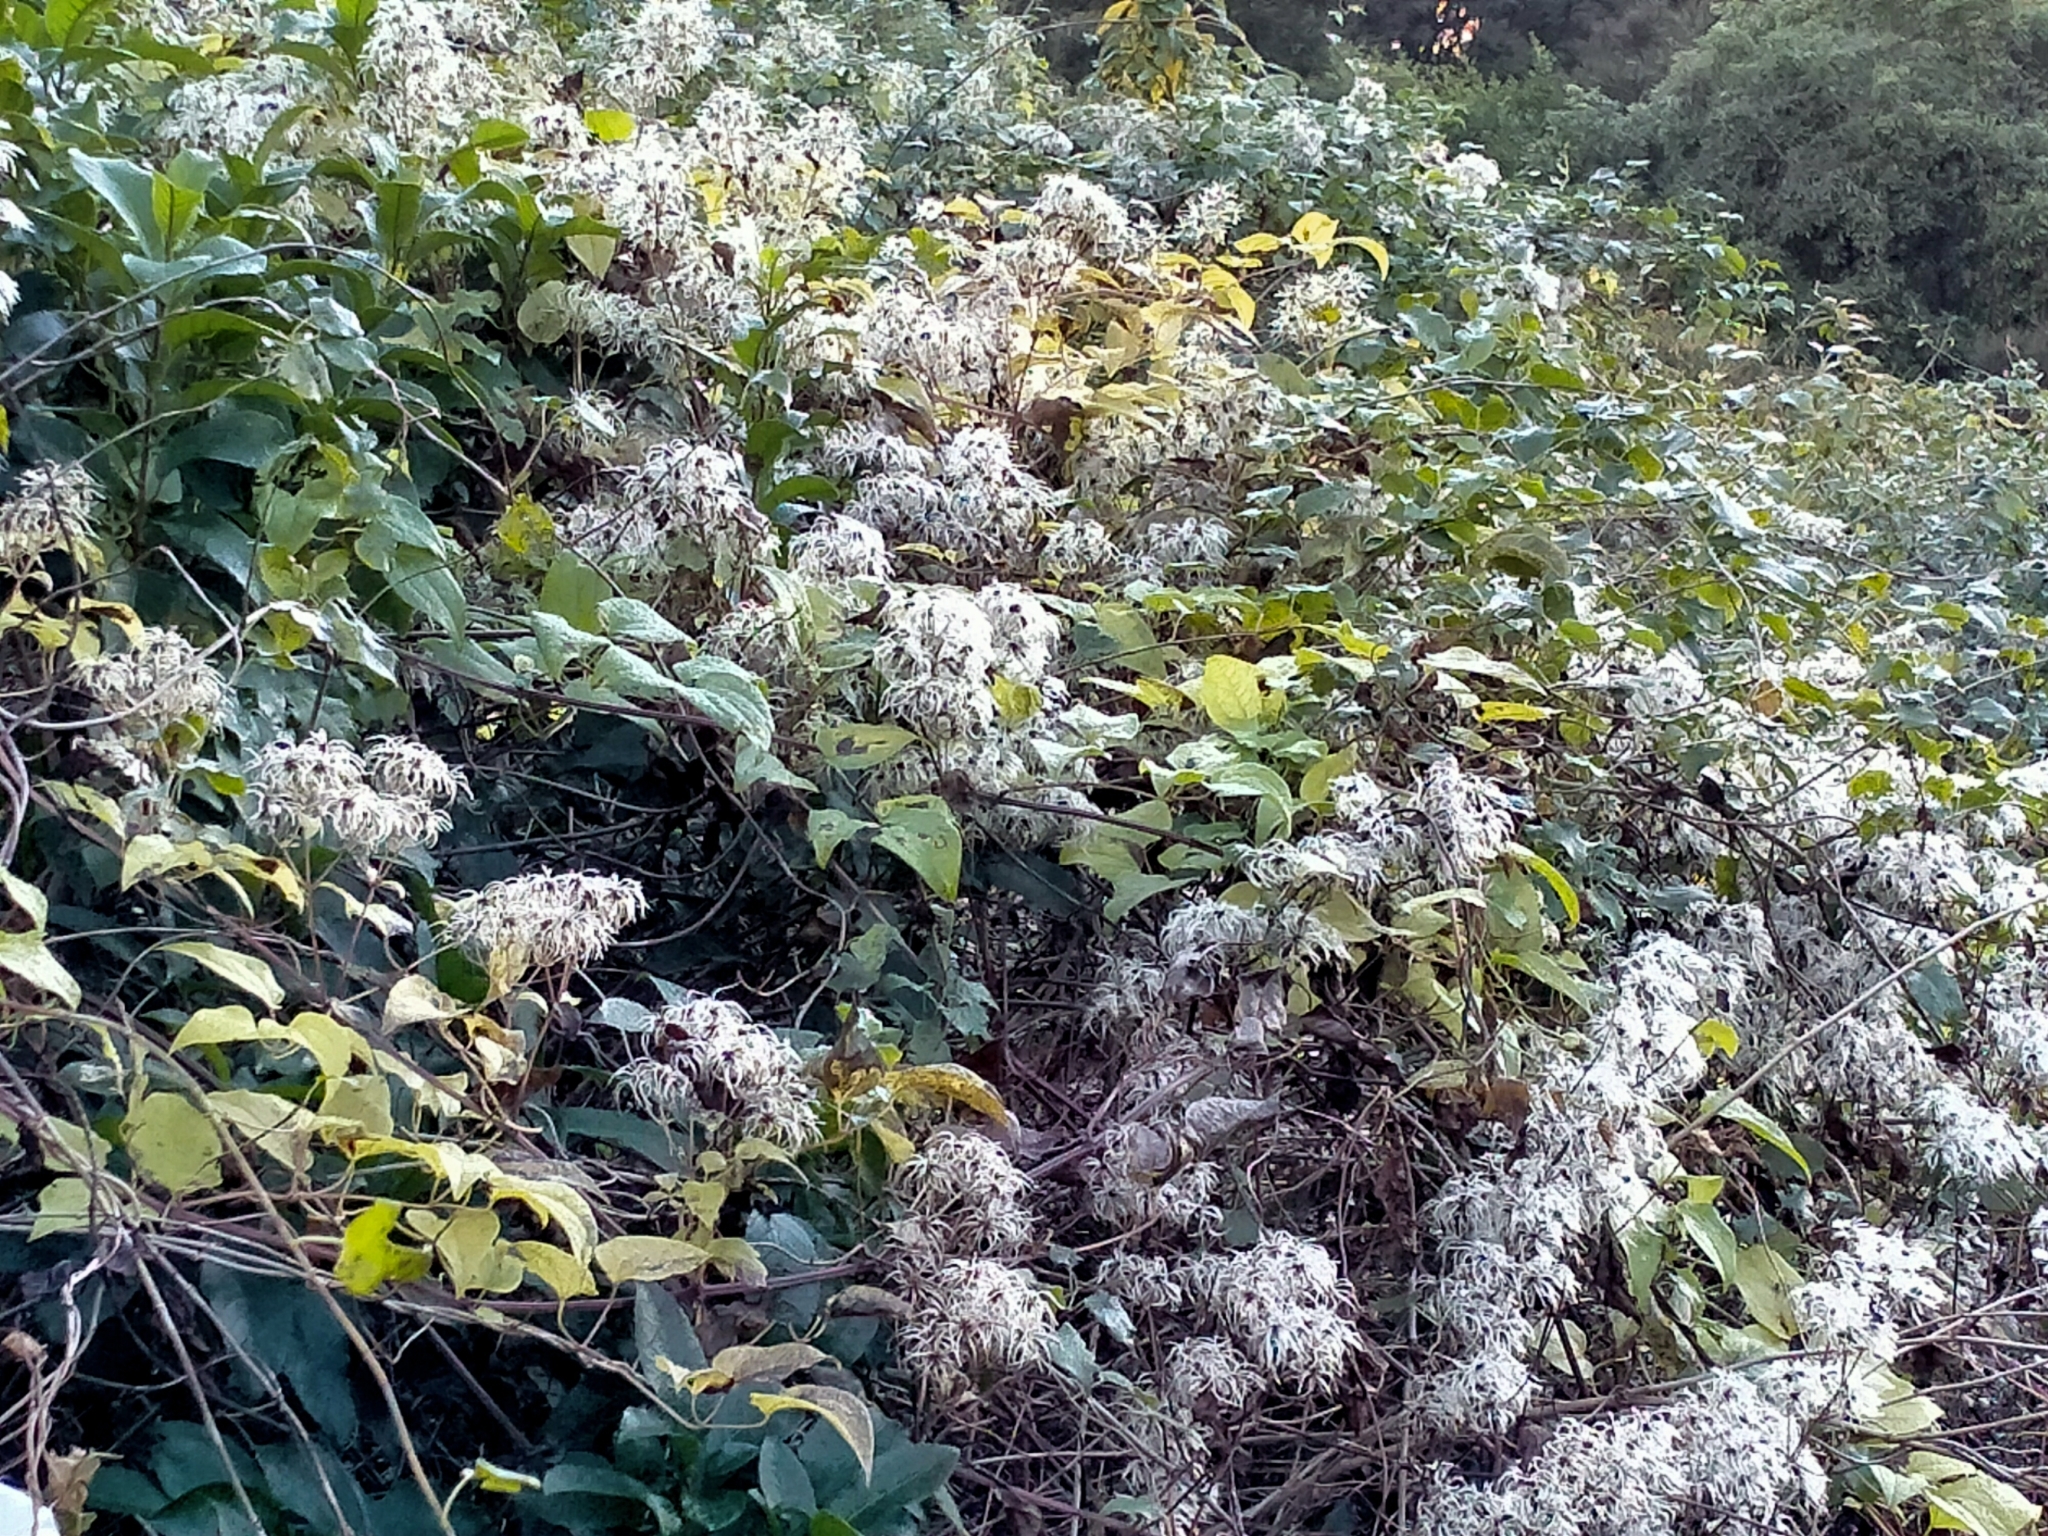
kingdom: Plantae
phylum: Tracheophyta
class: Magnoliopsida
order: Ranunculales
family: Ranunculaceae
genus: Clematis
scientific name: Clematis vitalba
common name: Evergreen clematis
